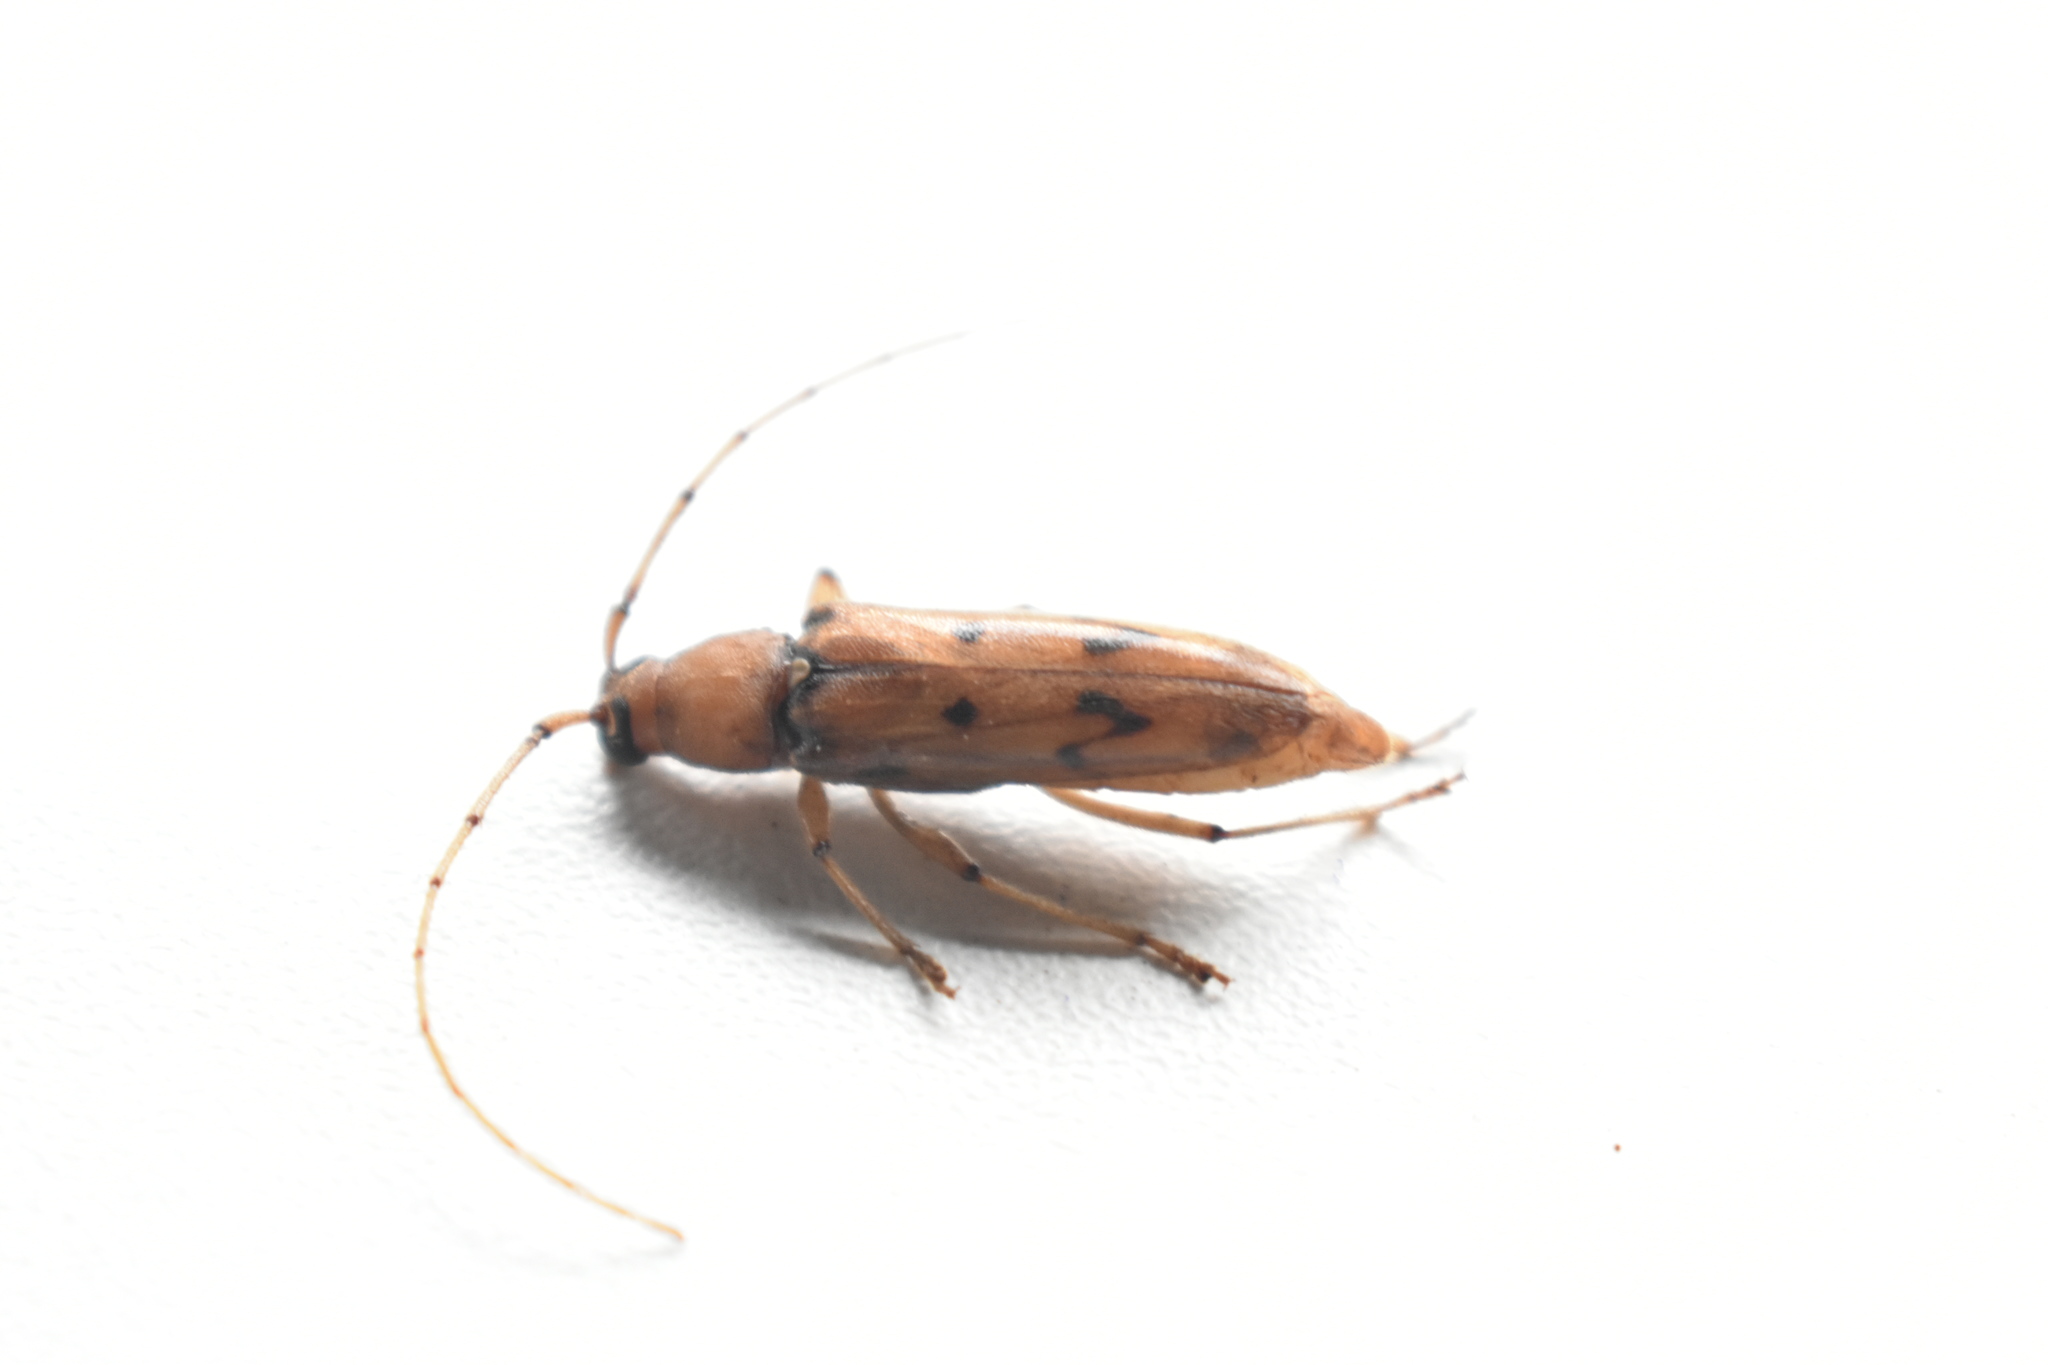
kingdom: Animalia
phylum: Arthropoda
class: Insecta
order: Coleoptera
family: Cerambycidae
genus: Achryson
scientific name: Achryson surinamum
